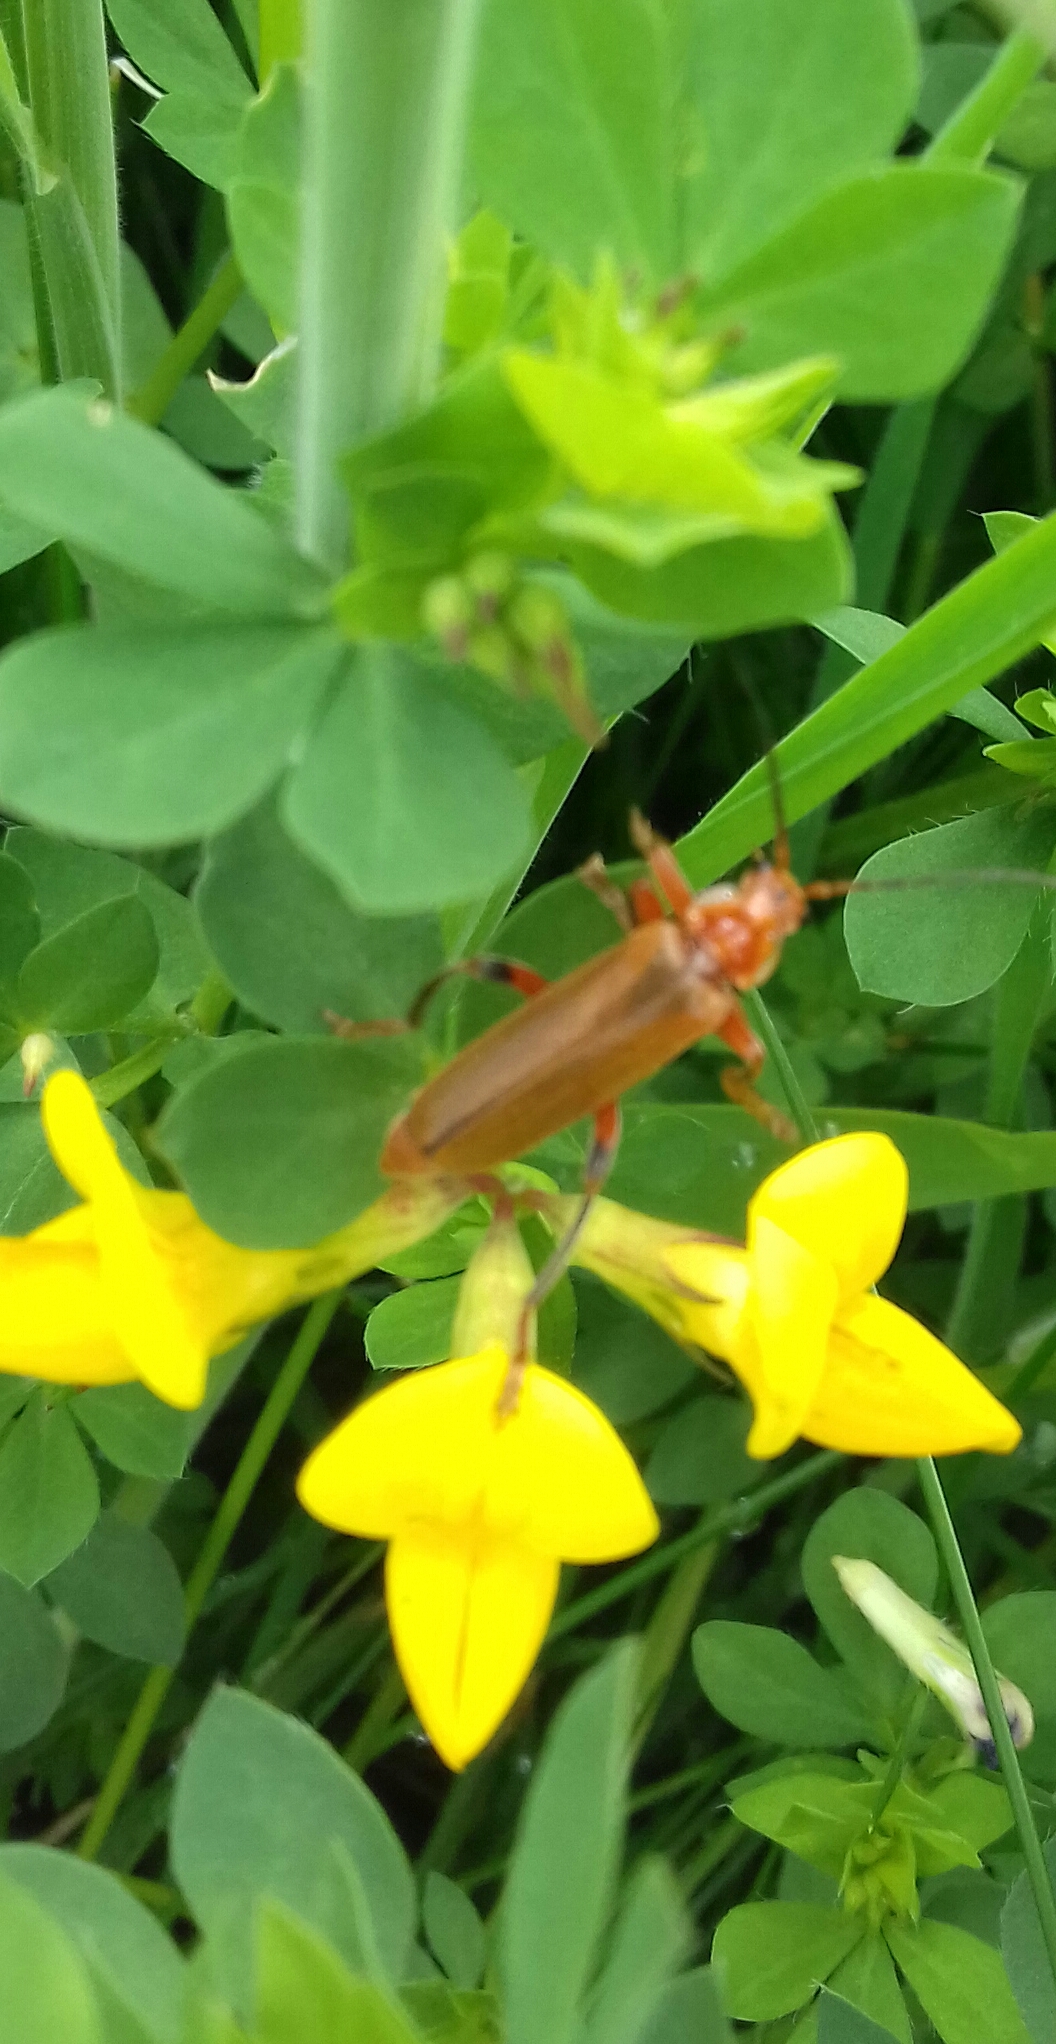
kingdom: Animalia
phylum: Arthropoda
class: Insecta
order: Coleoptera
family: Cantharidae
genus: Cantharis
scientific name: Cantharis livida
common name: Livid soldier beetle
